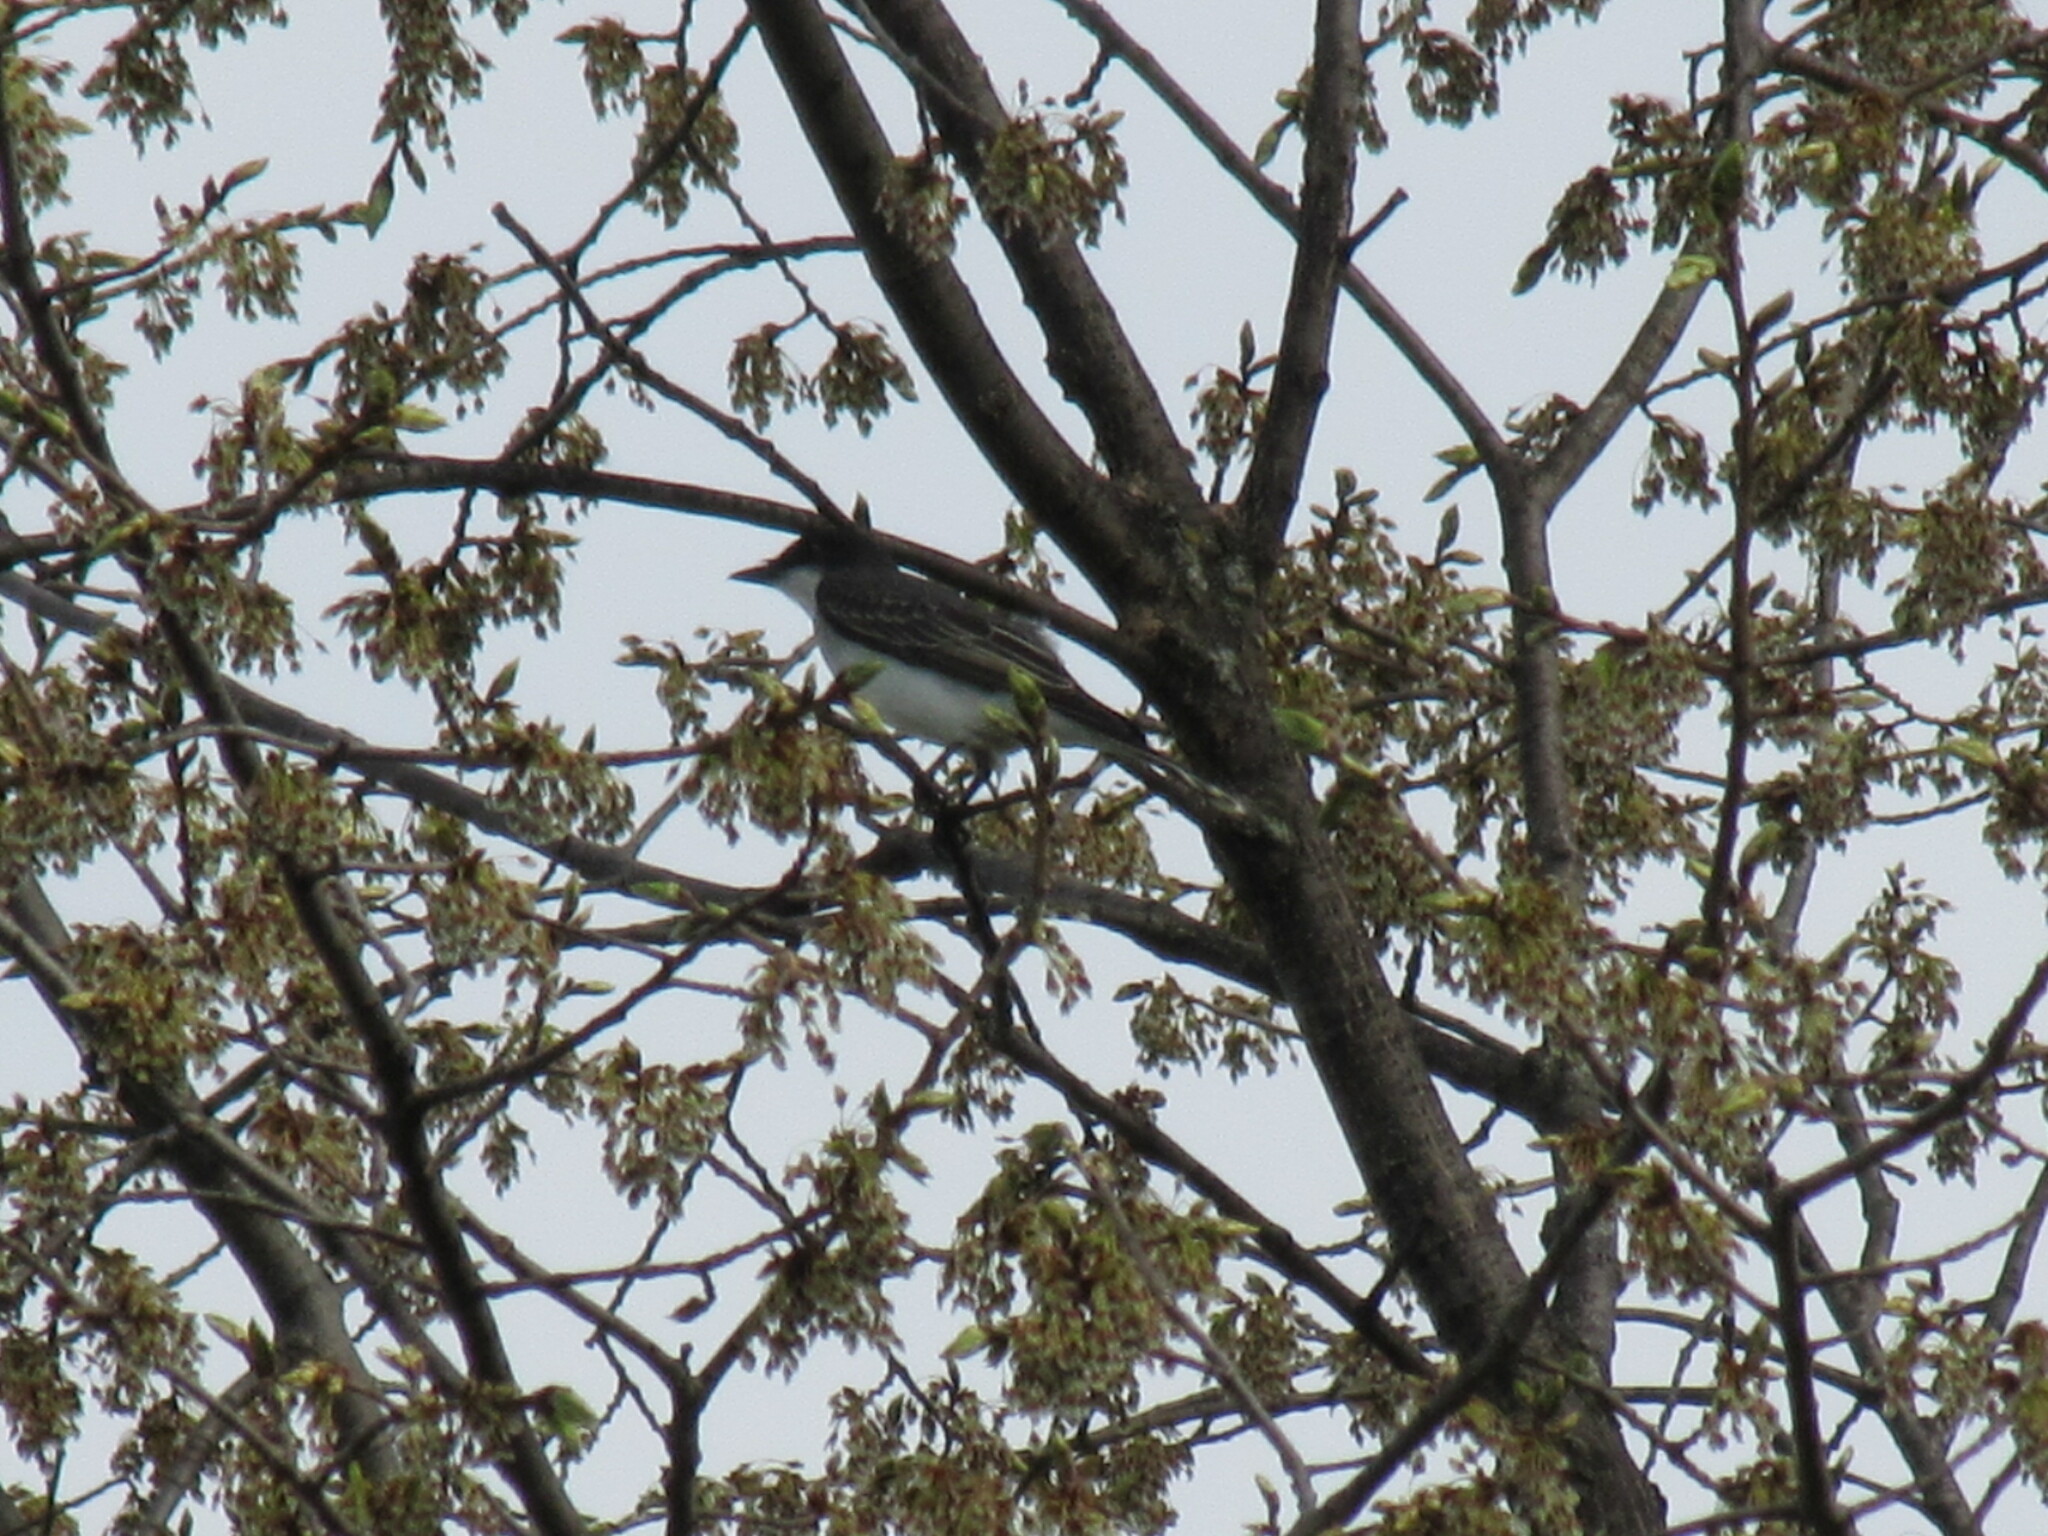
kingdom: Animalia
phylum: Chordata
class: Aves
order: Passeriformes
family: Tyrannidae
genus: Tyrannus
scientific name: Tyrannus tyrannus
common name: Eastern kingbird
